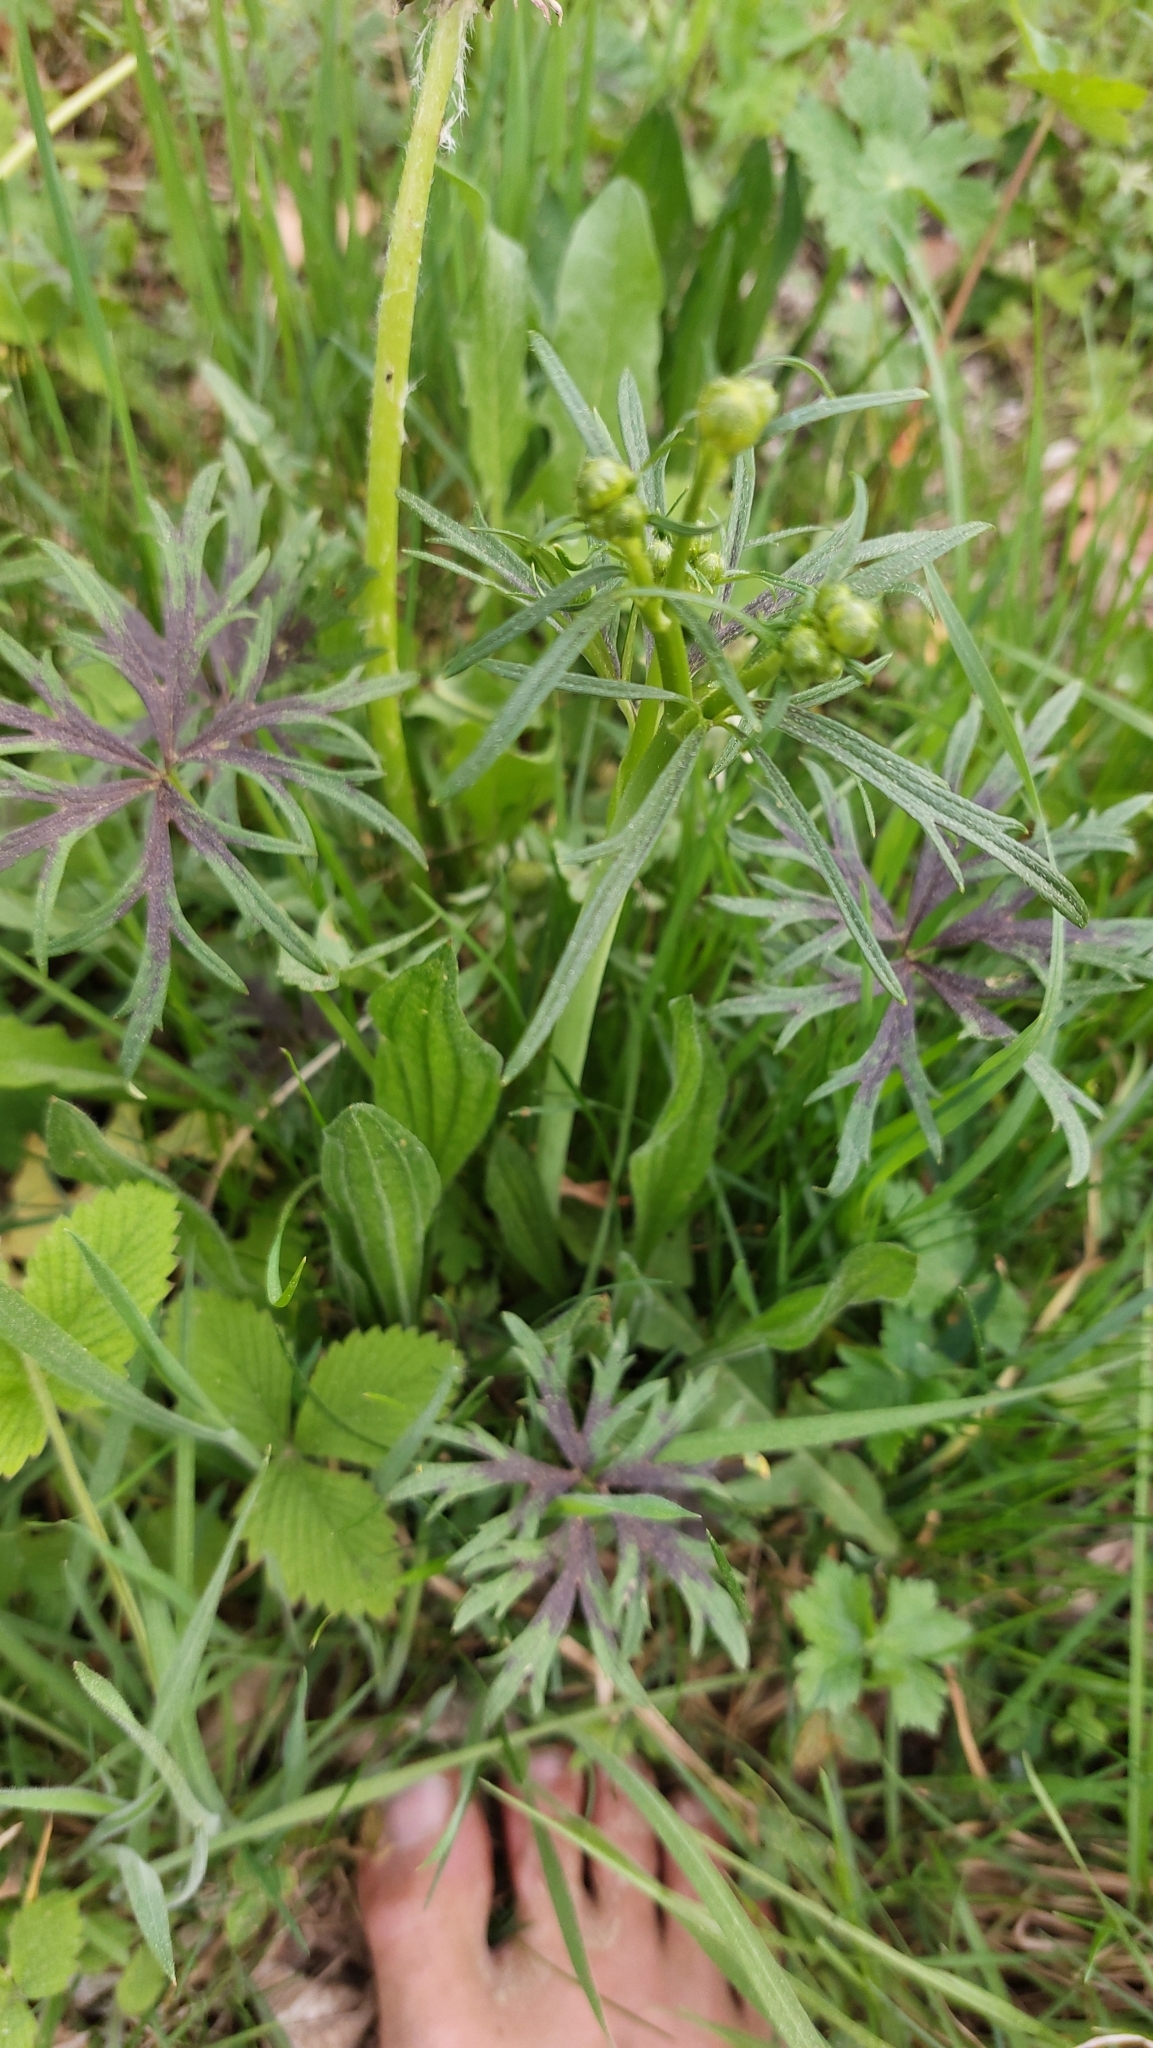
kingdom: Plantae
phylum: Tracheophyta
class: Magnoliopsida
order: Ranunculales
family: Ranunculaceae
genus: Ranunculus
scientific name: Ranunculus acris
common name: Meadow buttercup
